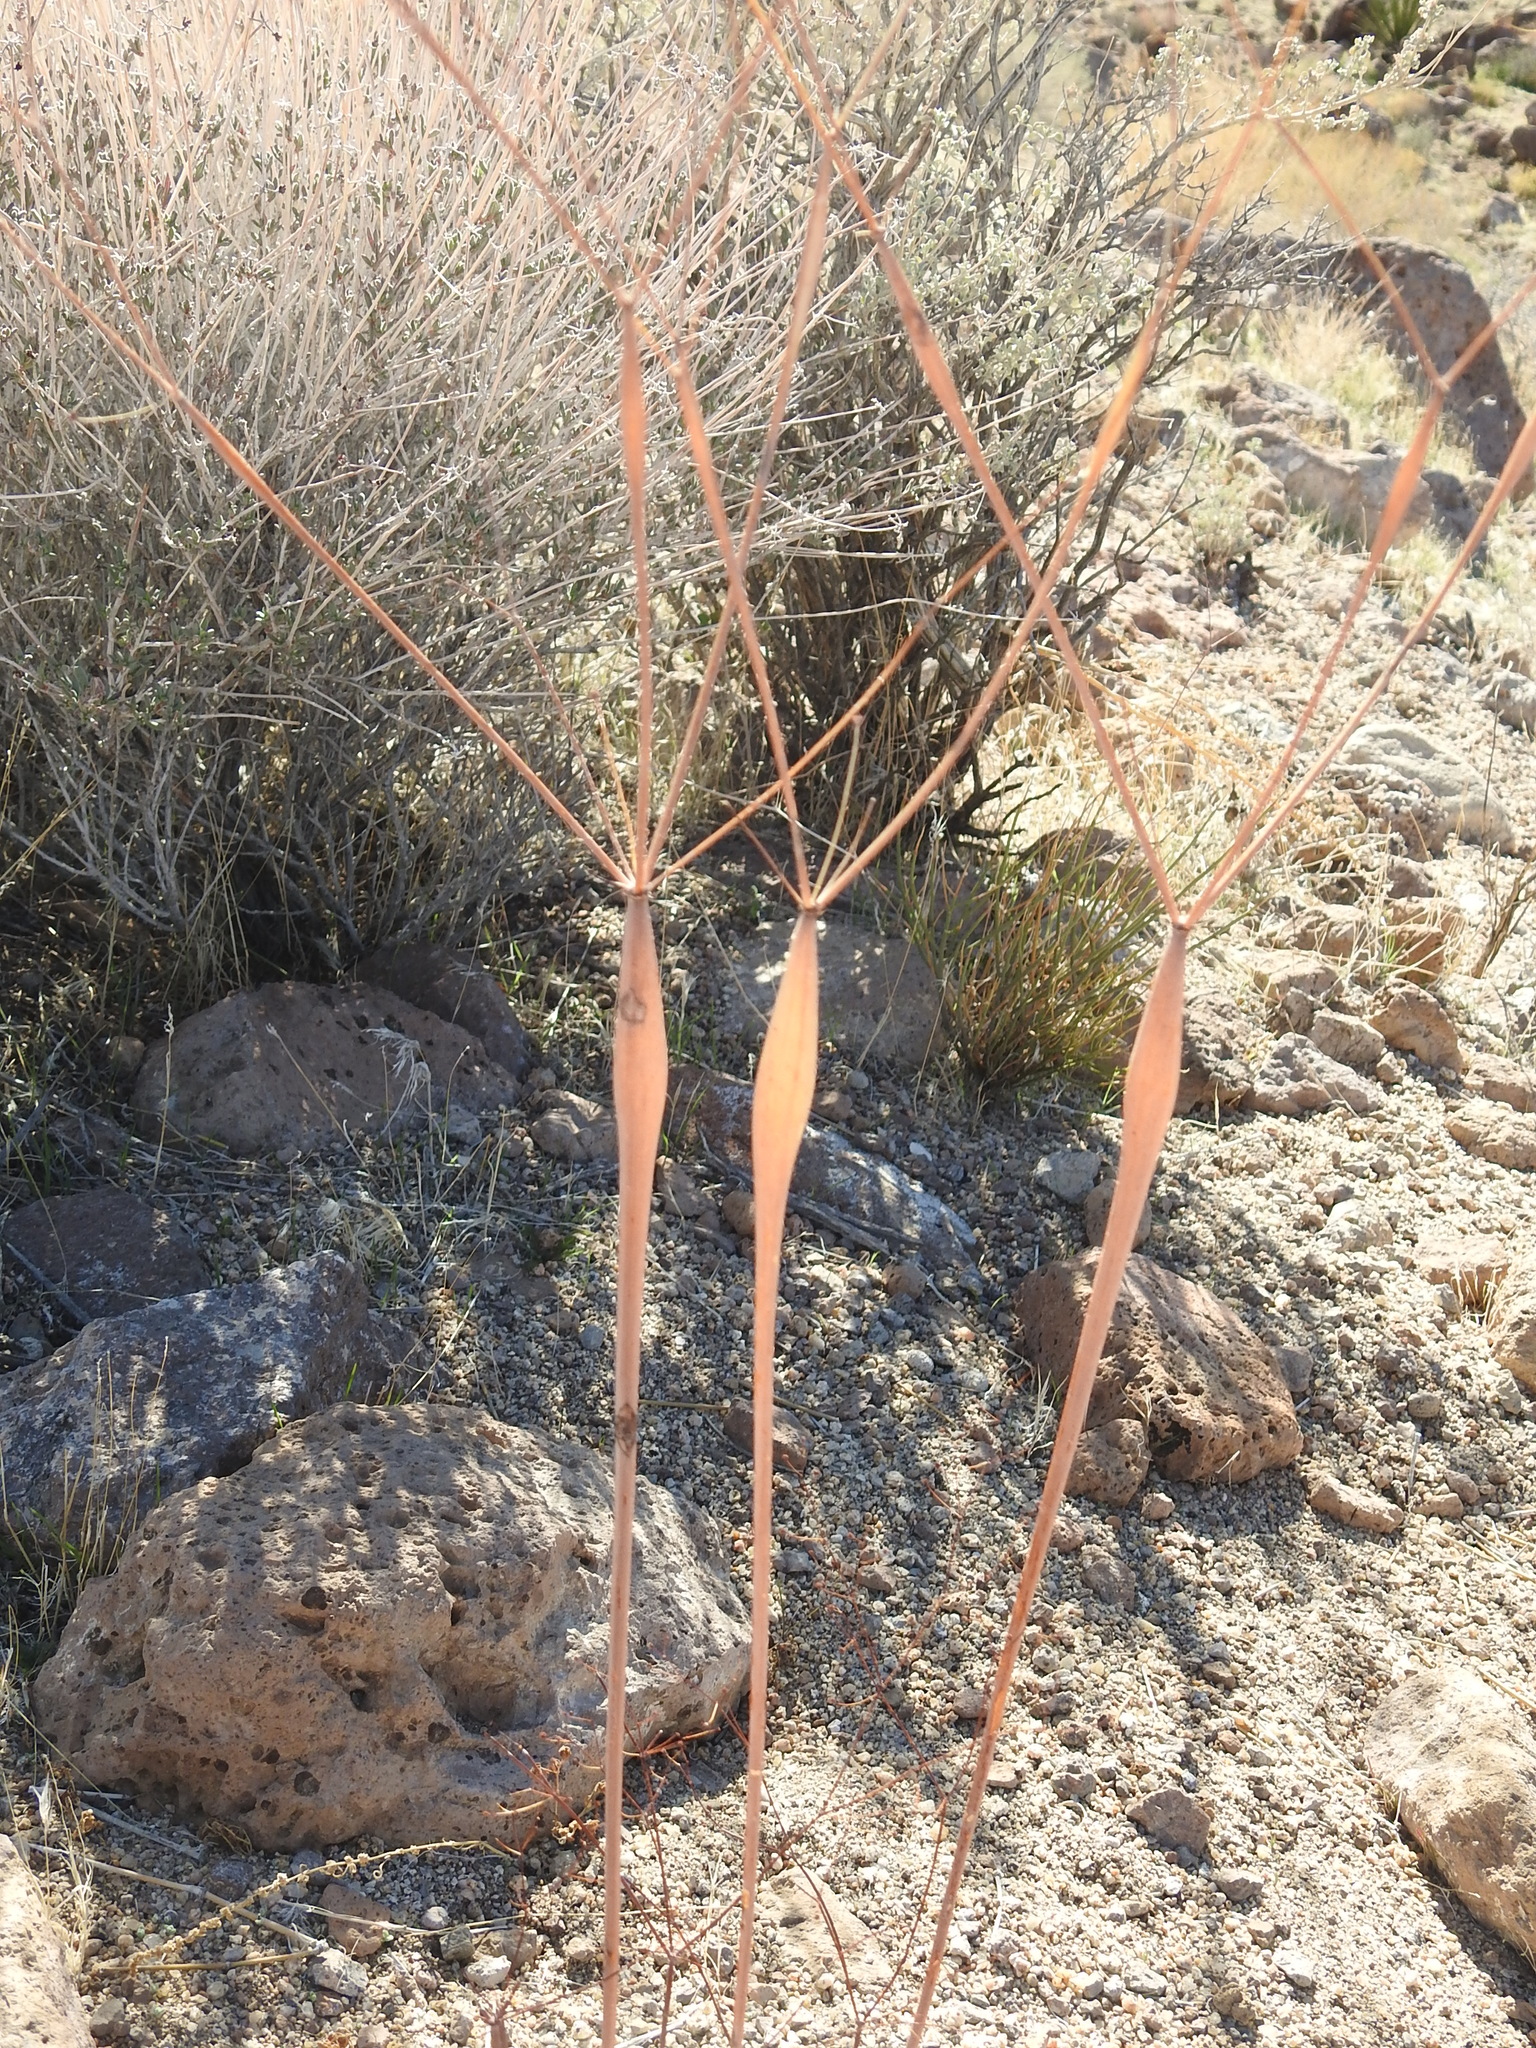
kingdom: Plantae
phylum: Tracheophyta
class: Magnoliopsida
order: Caryophyllales
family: Polygonaceae
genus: Eriogonum
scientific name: Eriogonum inflatum
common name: Desert trumpet
